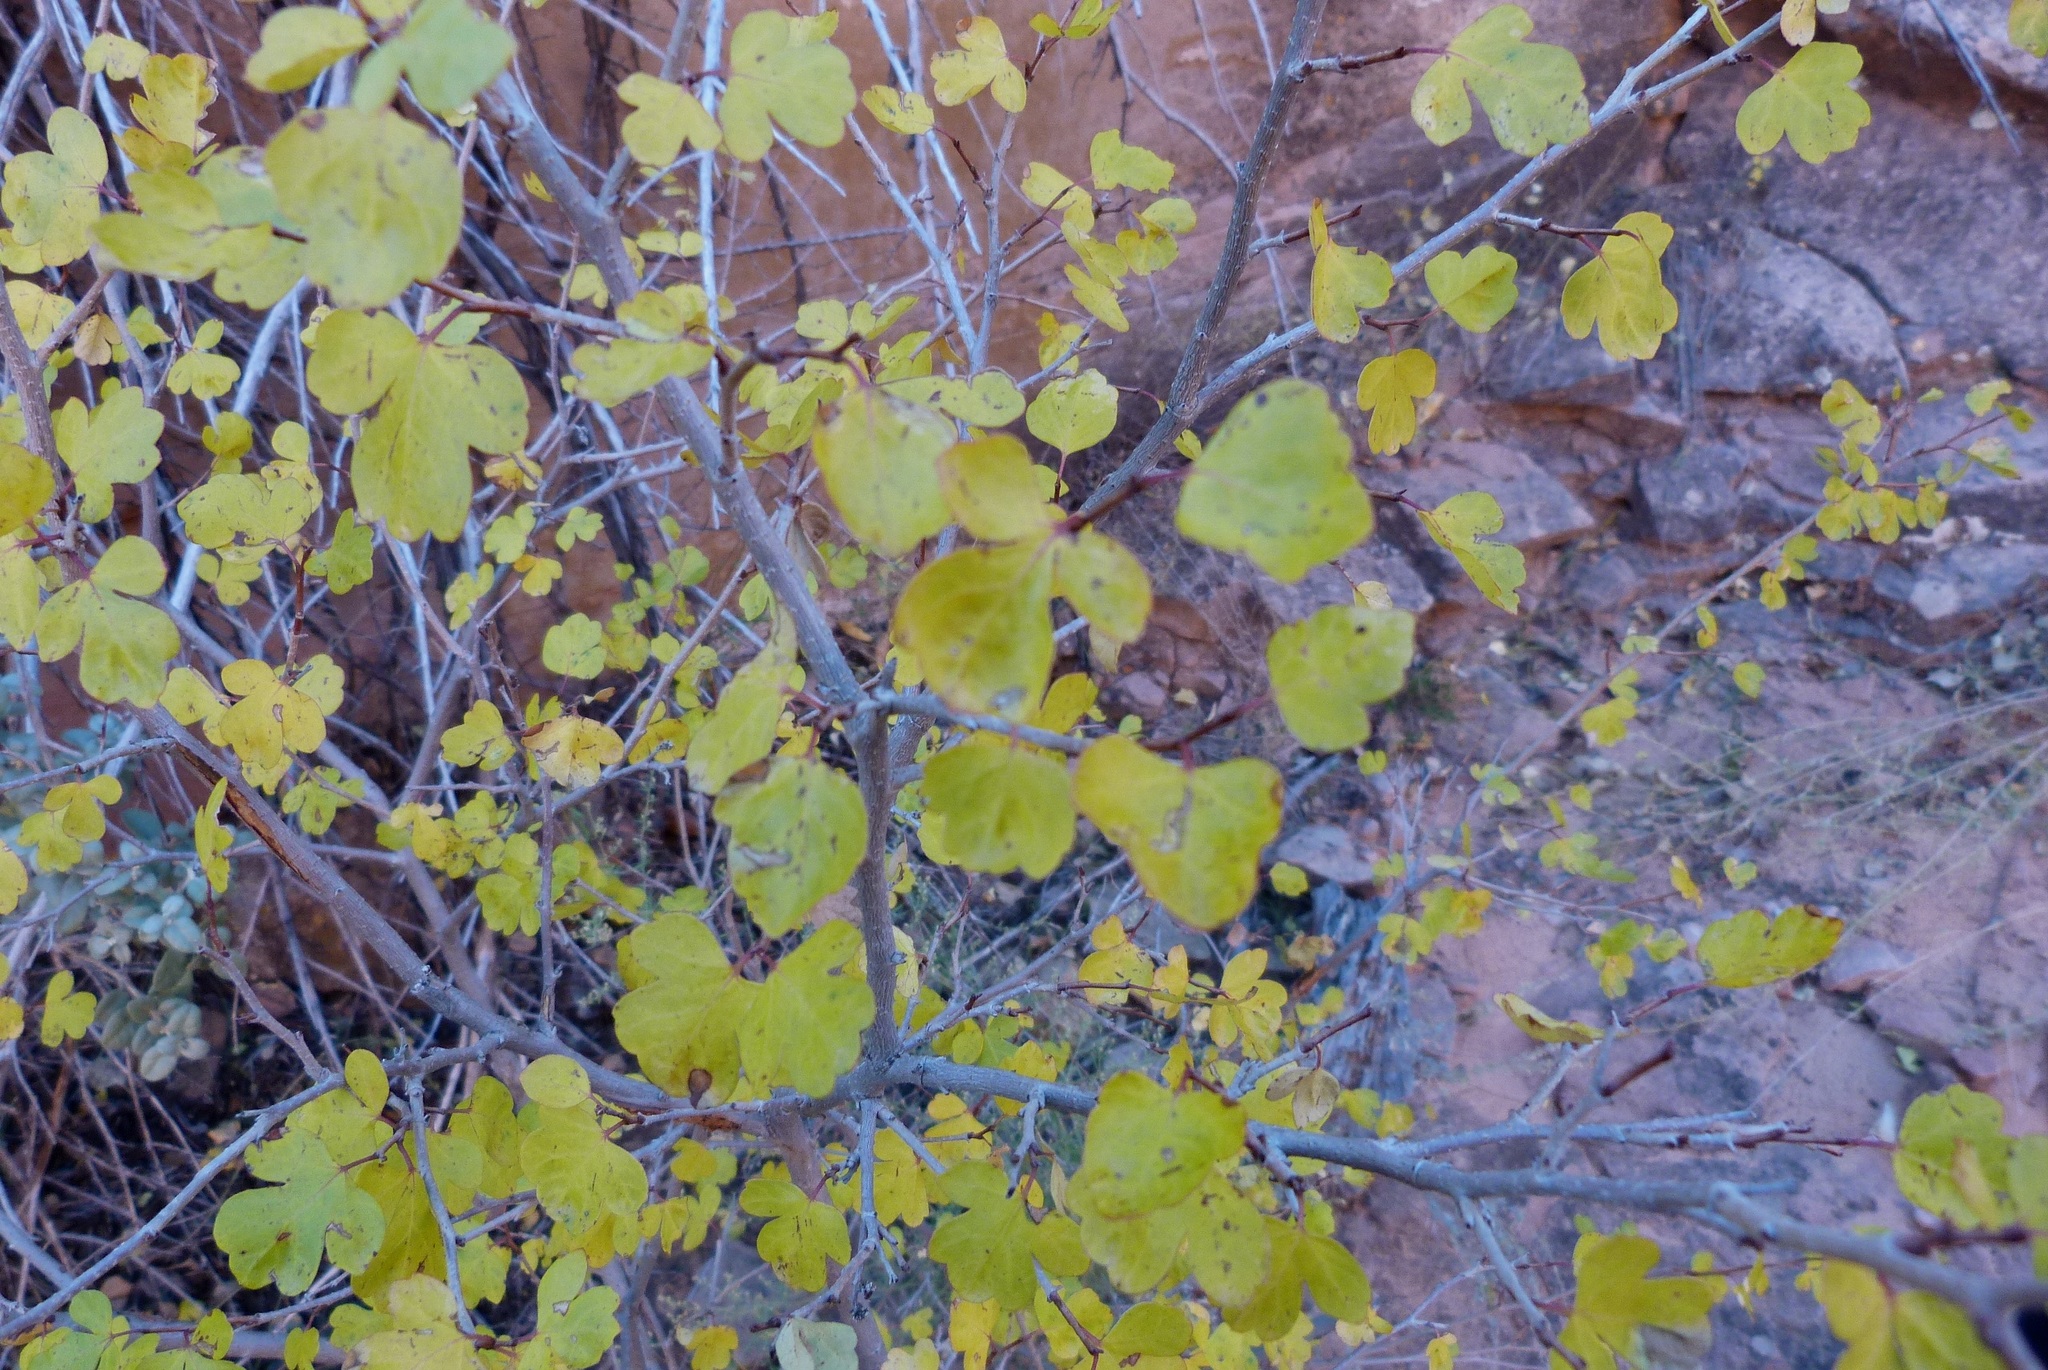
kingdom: Plantae
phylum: Tracheophyta
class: Magnoliopsida
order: Sapindales
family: Anacardiaceae
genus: Rhus
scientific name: Rhus aromatica
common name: Aromatic sumac
